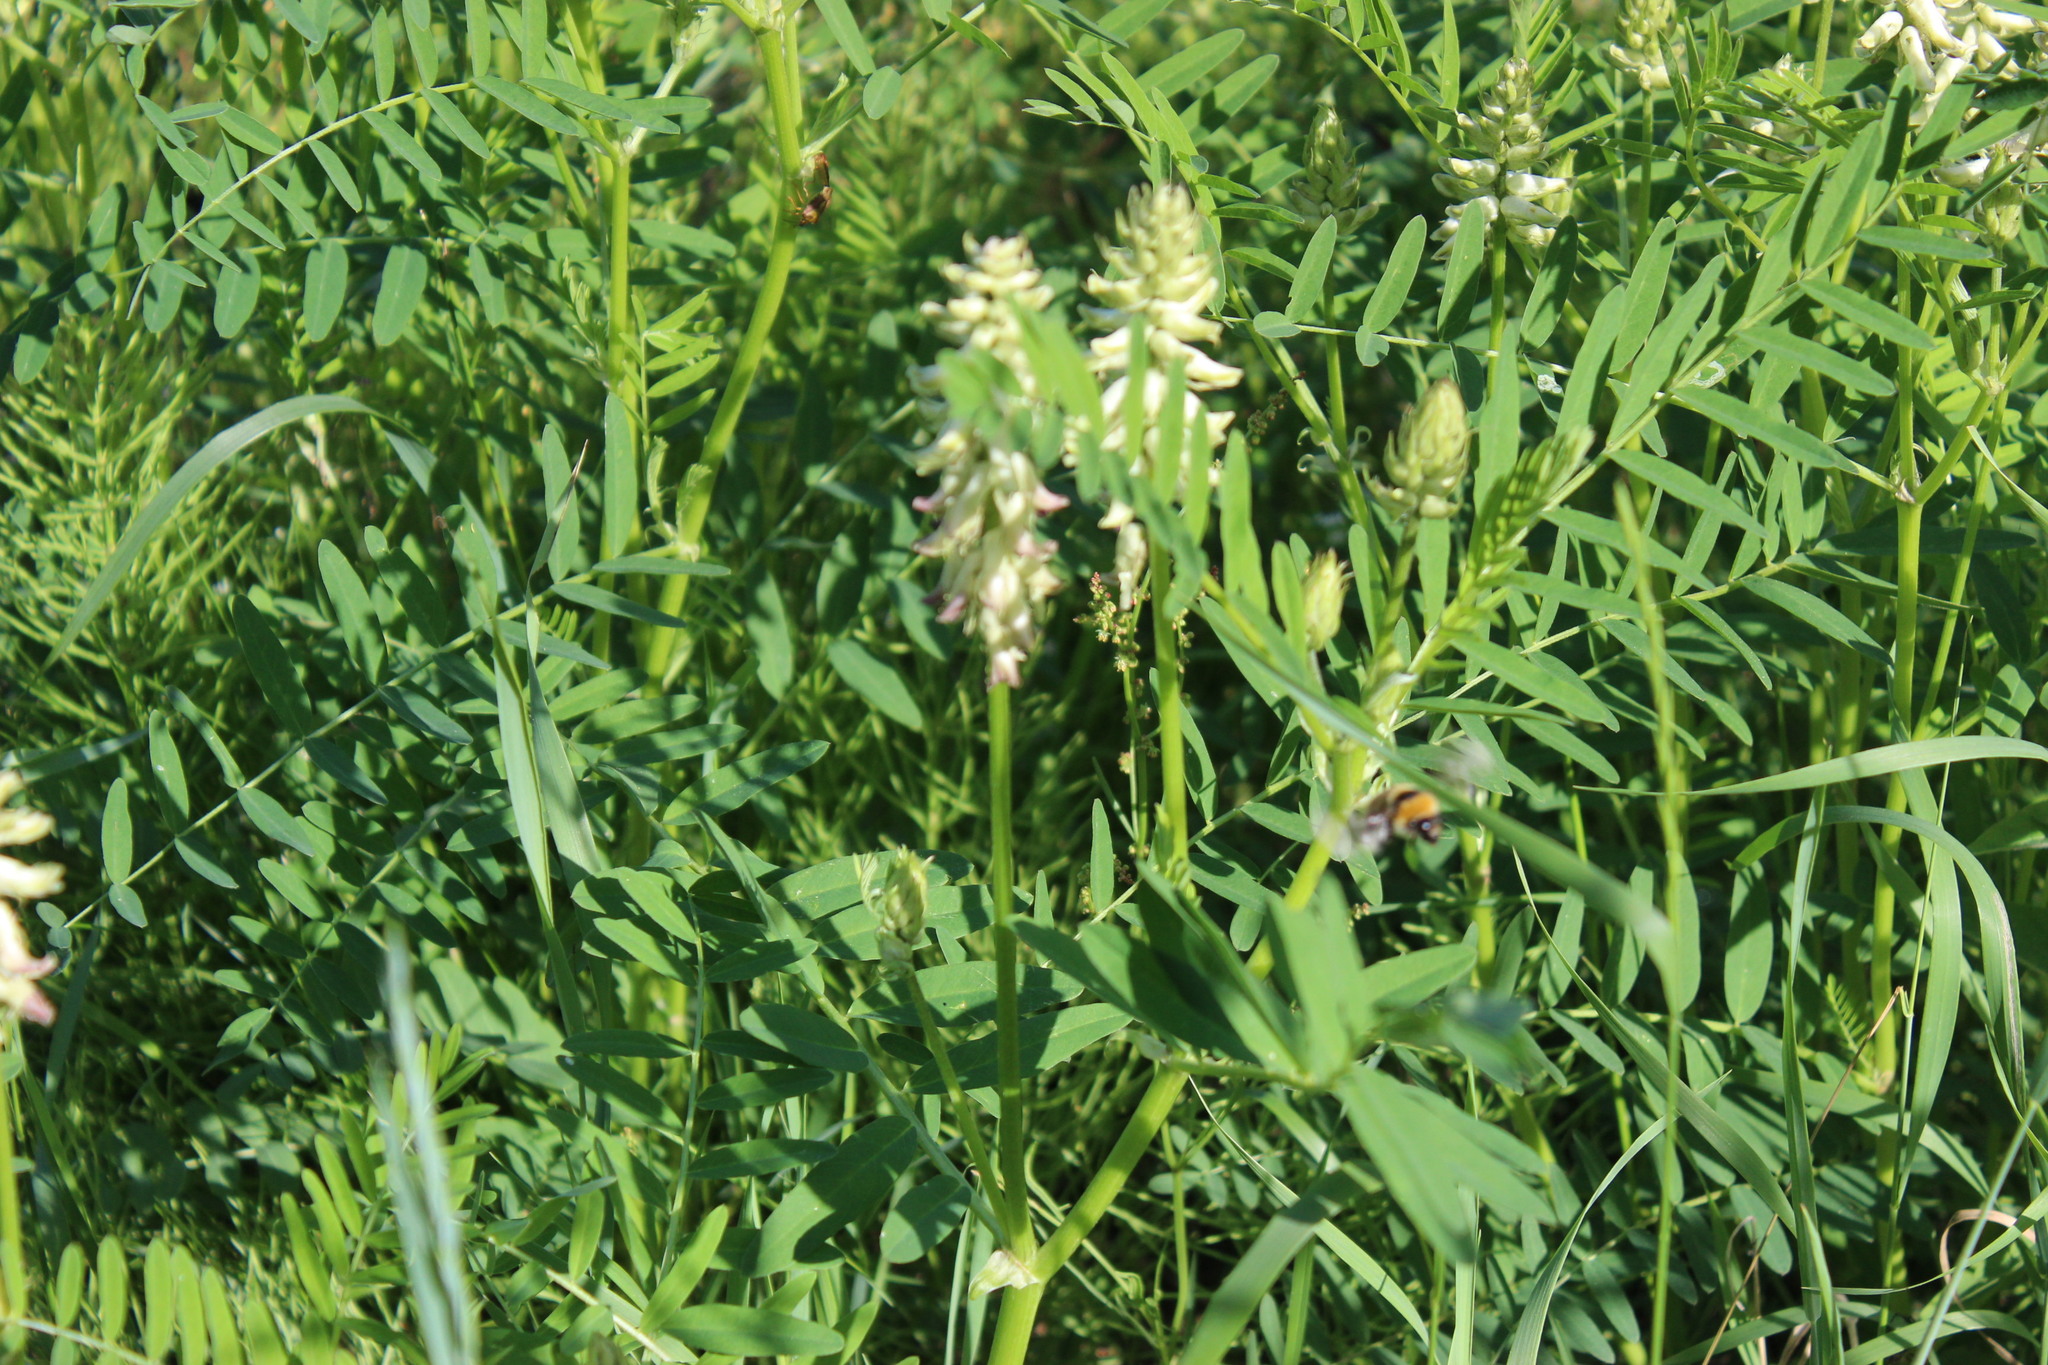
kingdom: Plantae
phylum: Tracheophyta
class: Magnoliopsida
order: Fabales
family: Fabaceae
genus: Astragalus
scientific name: Astragalus uliginosus
